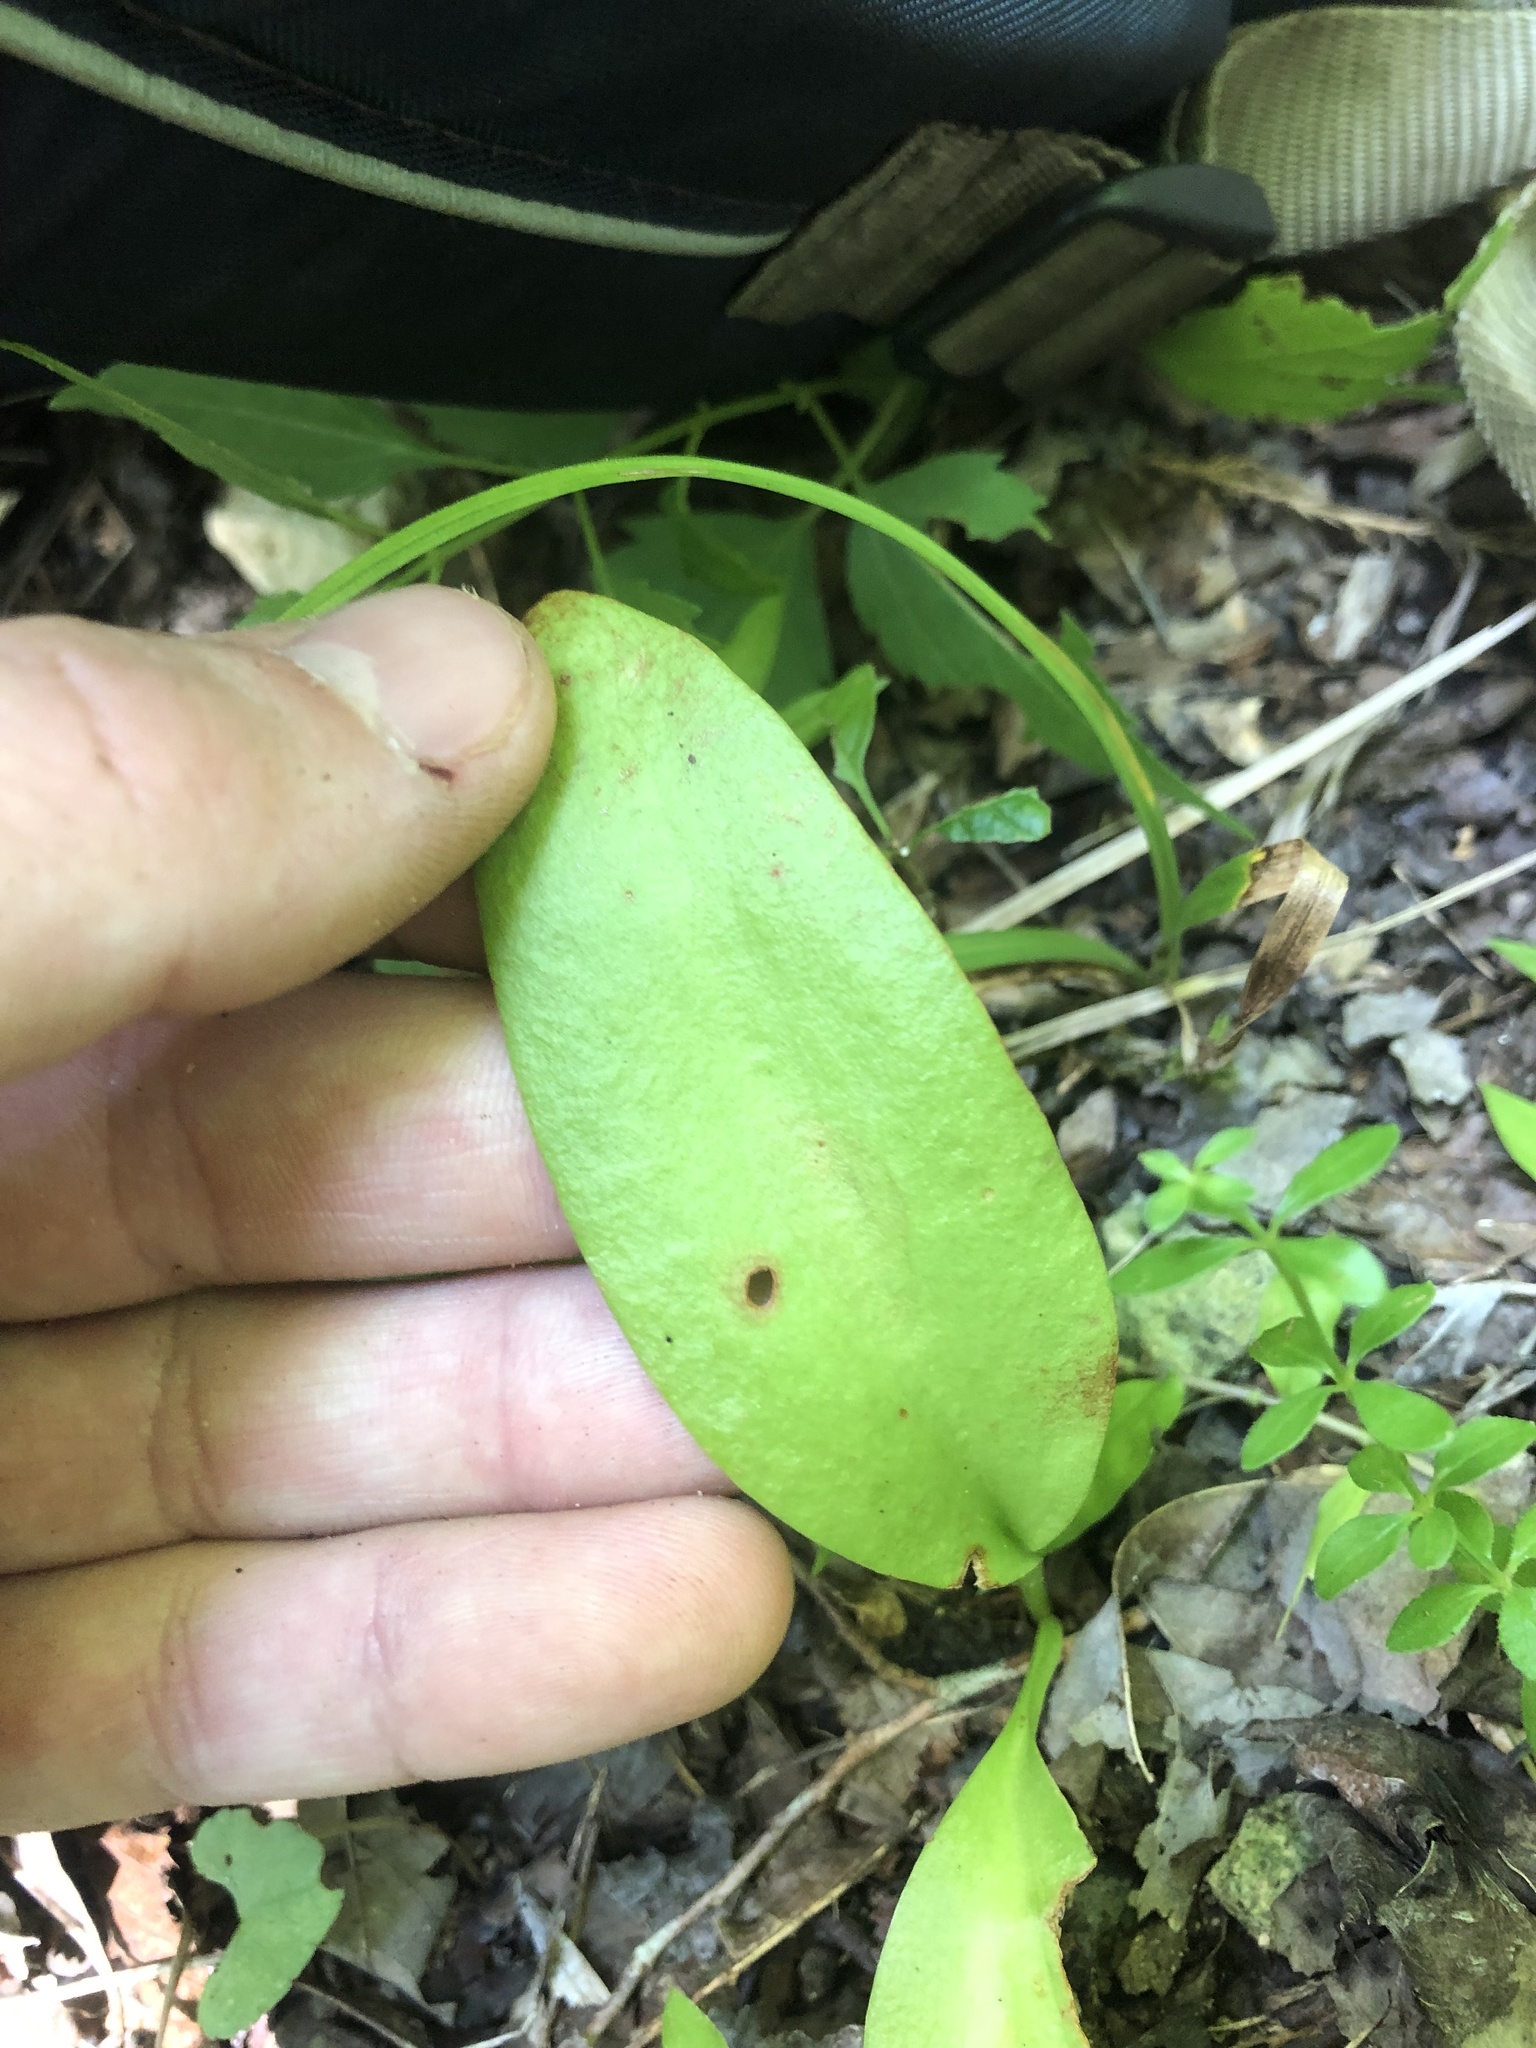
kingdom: Plantae
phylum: Tracheophyta
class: Polypodiopsida
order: Ophioglossales
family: Ophioglossaceae
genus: Ophioglossum
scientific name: Ophioglossum engelmannii
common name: Limestone adder's-tongue
